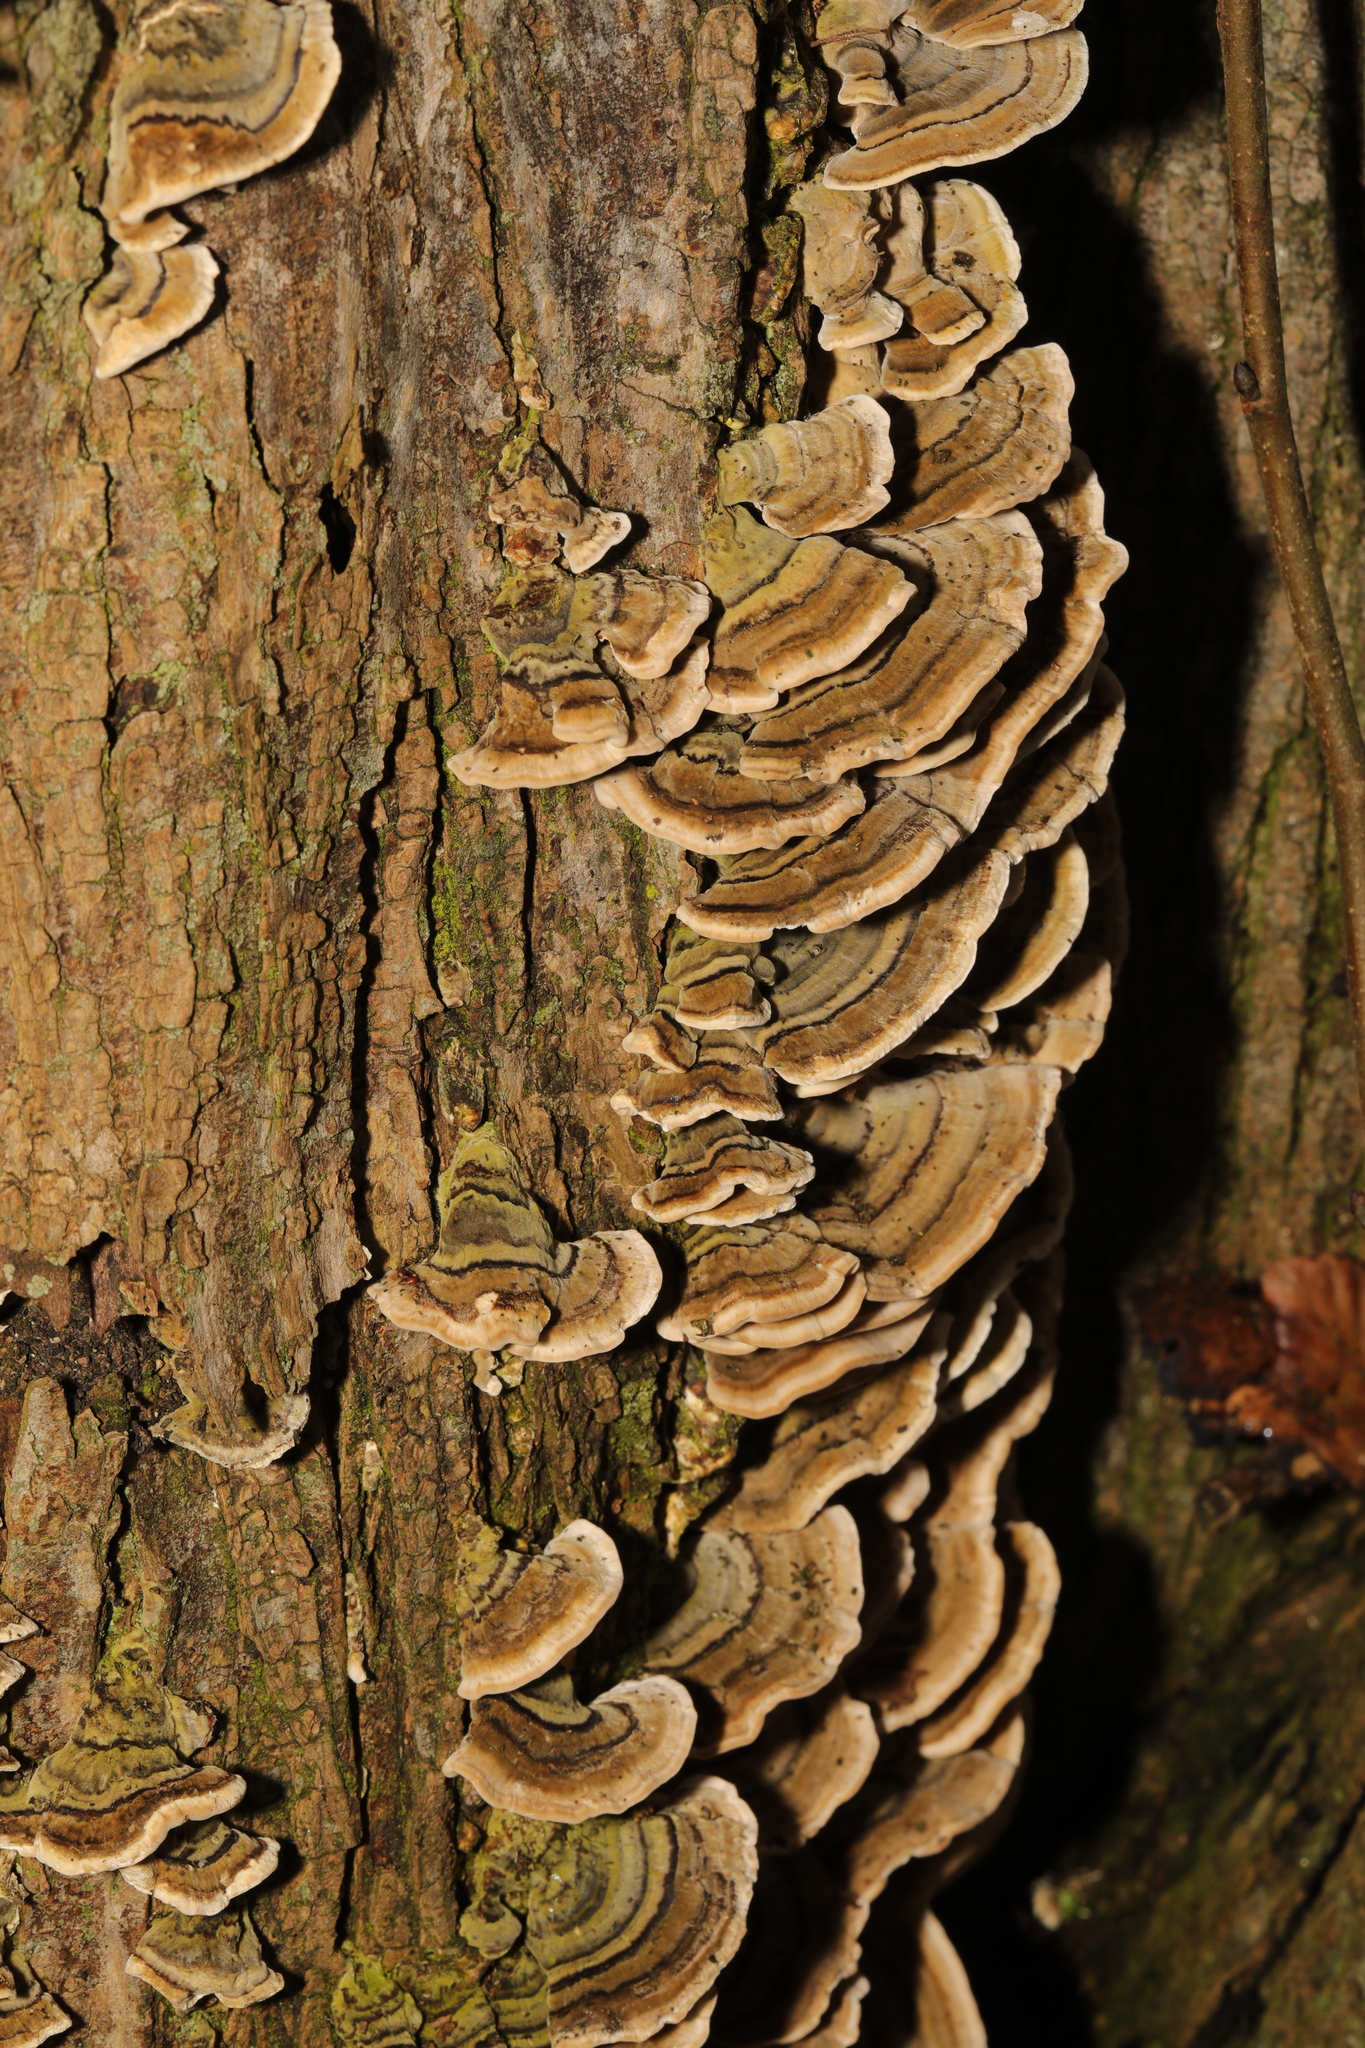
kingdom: Fungi
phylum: Basidiomycota
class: Agaricomycetes
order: Polyporales
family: Polyporaceae
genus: Trametes
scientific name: Trametes versicolor
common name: Turkeytail
